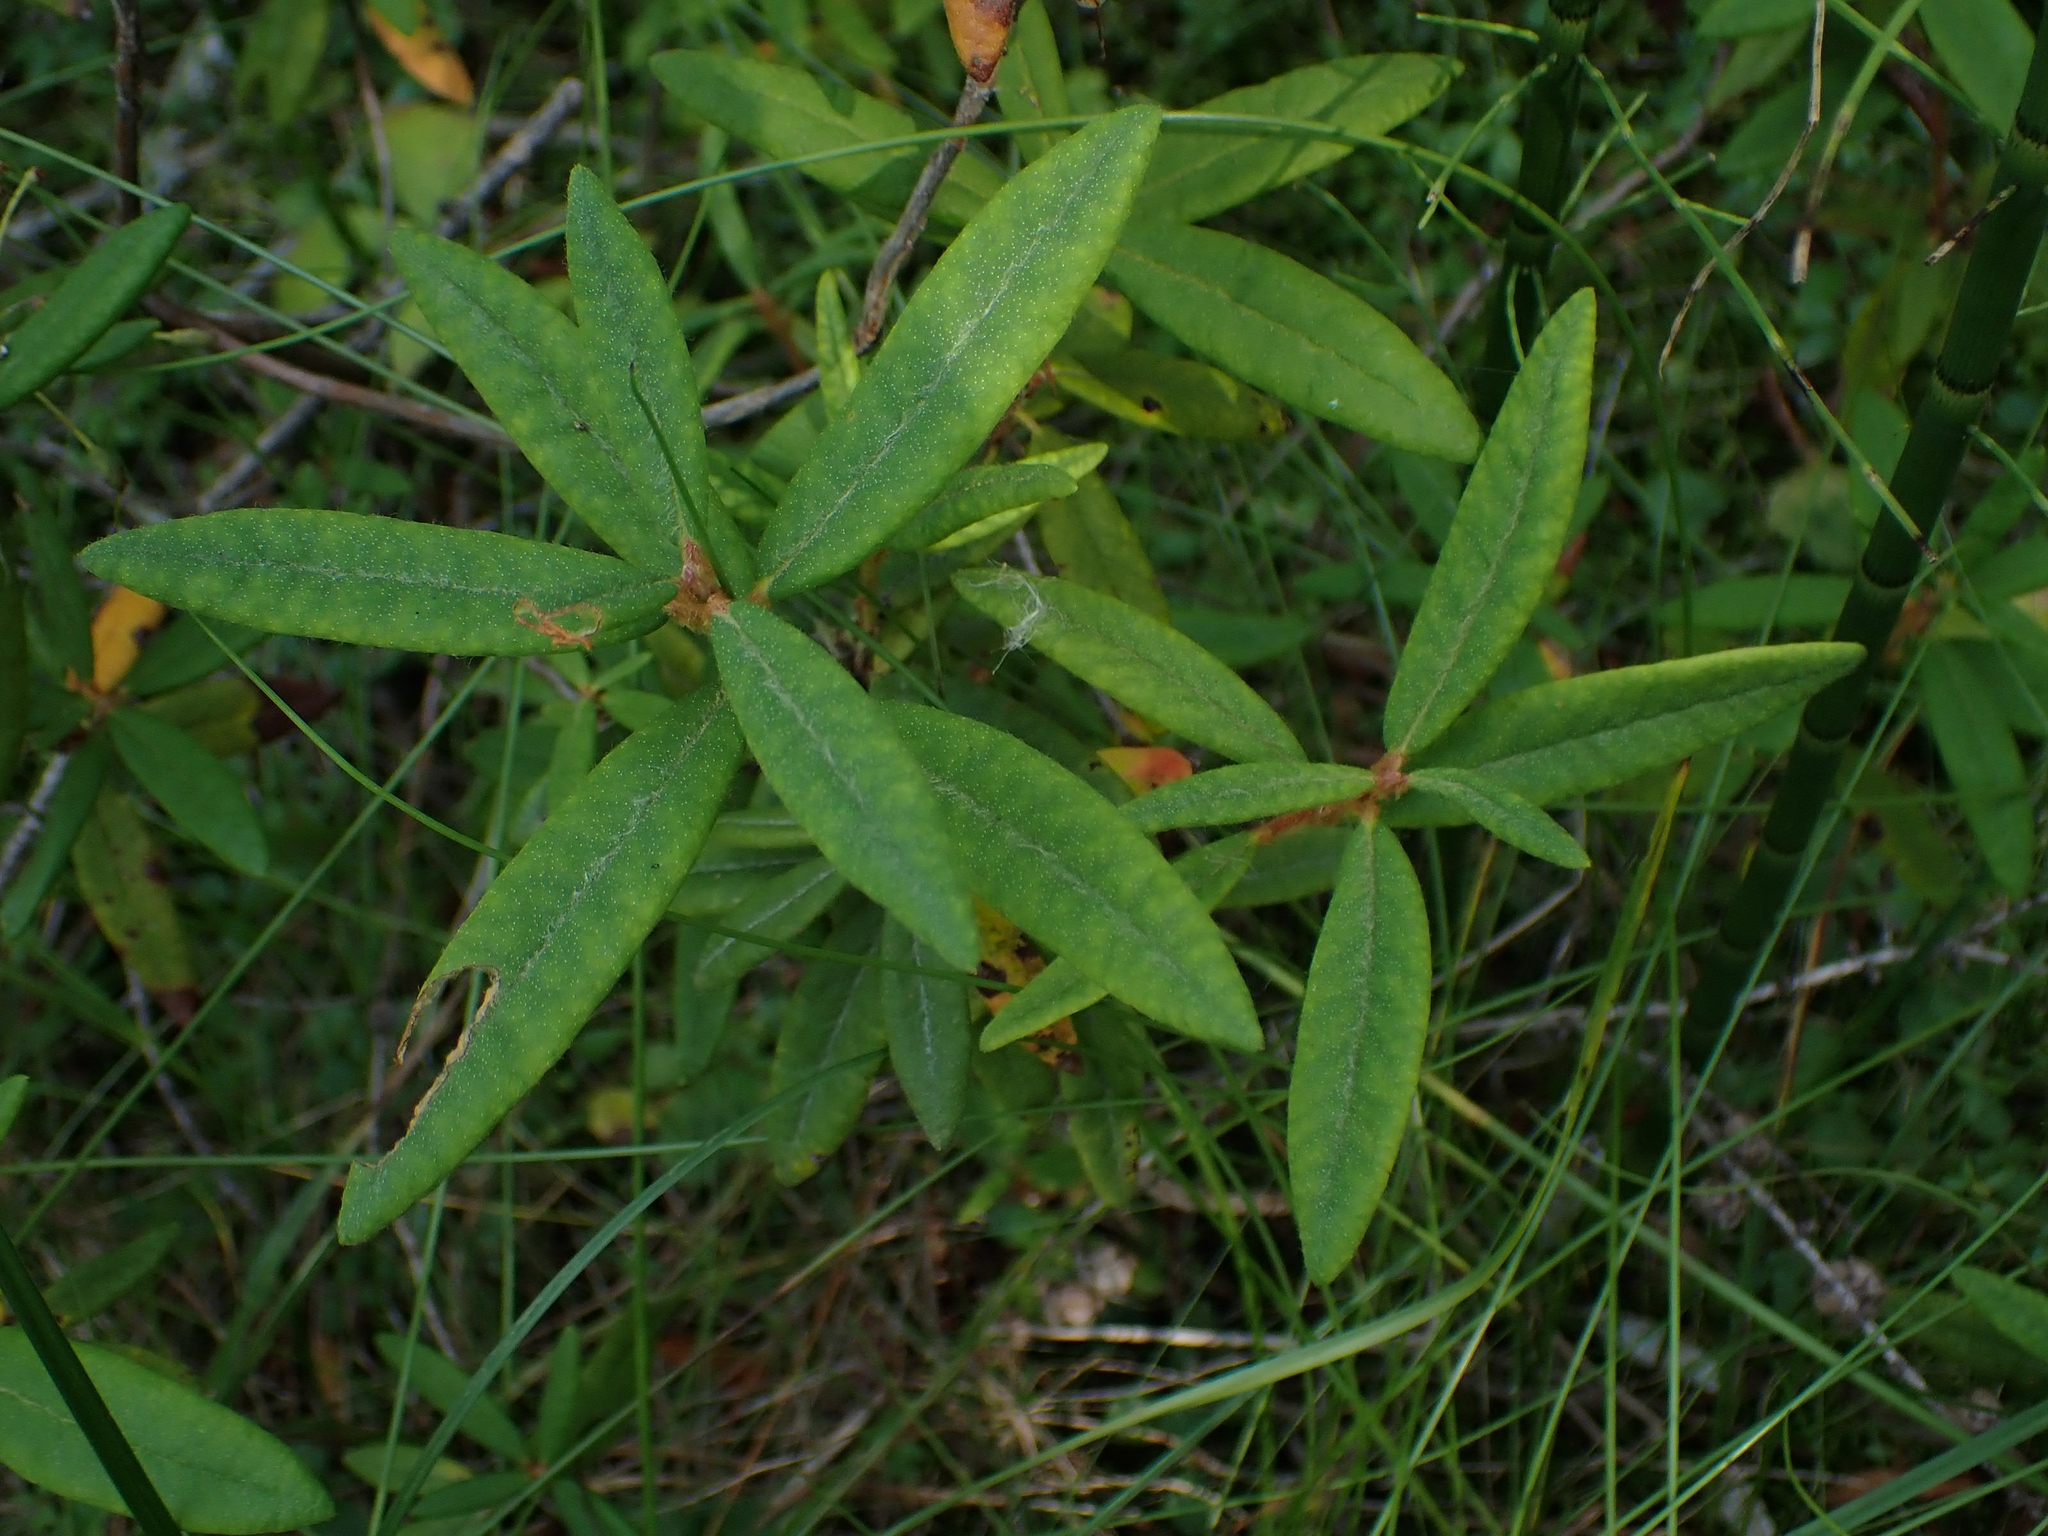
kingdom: Plantae
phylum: Tracheophyta
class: Magnoliopsida
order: Ericales
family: Ericaceae
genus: Rhododendron
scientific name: Rhododendron groenlandicum
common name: Bog labrador tea
